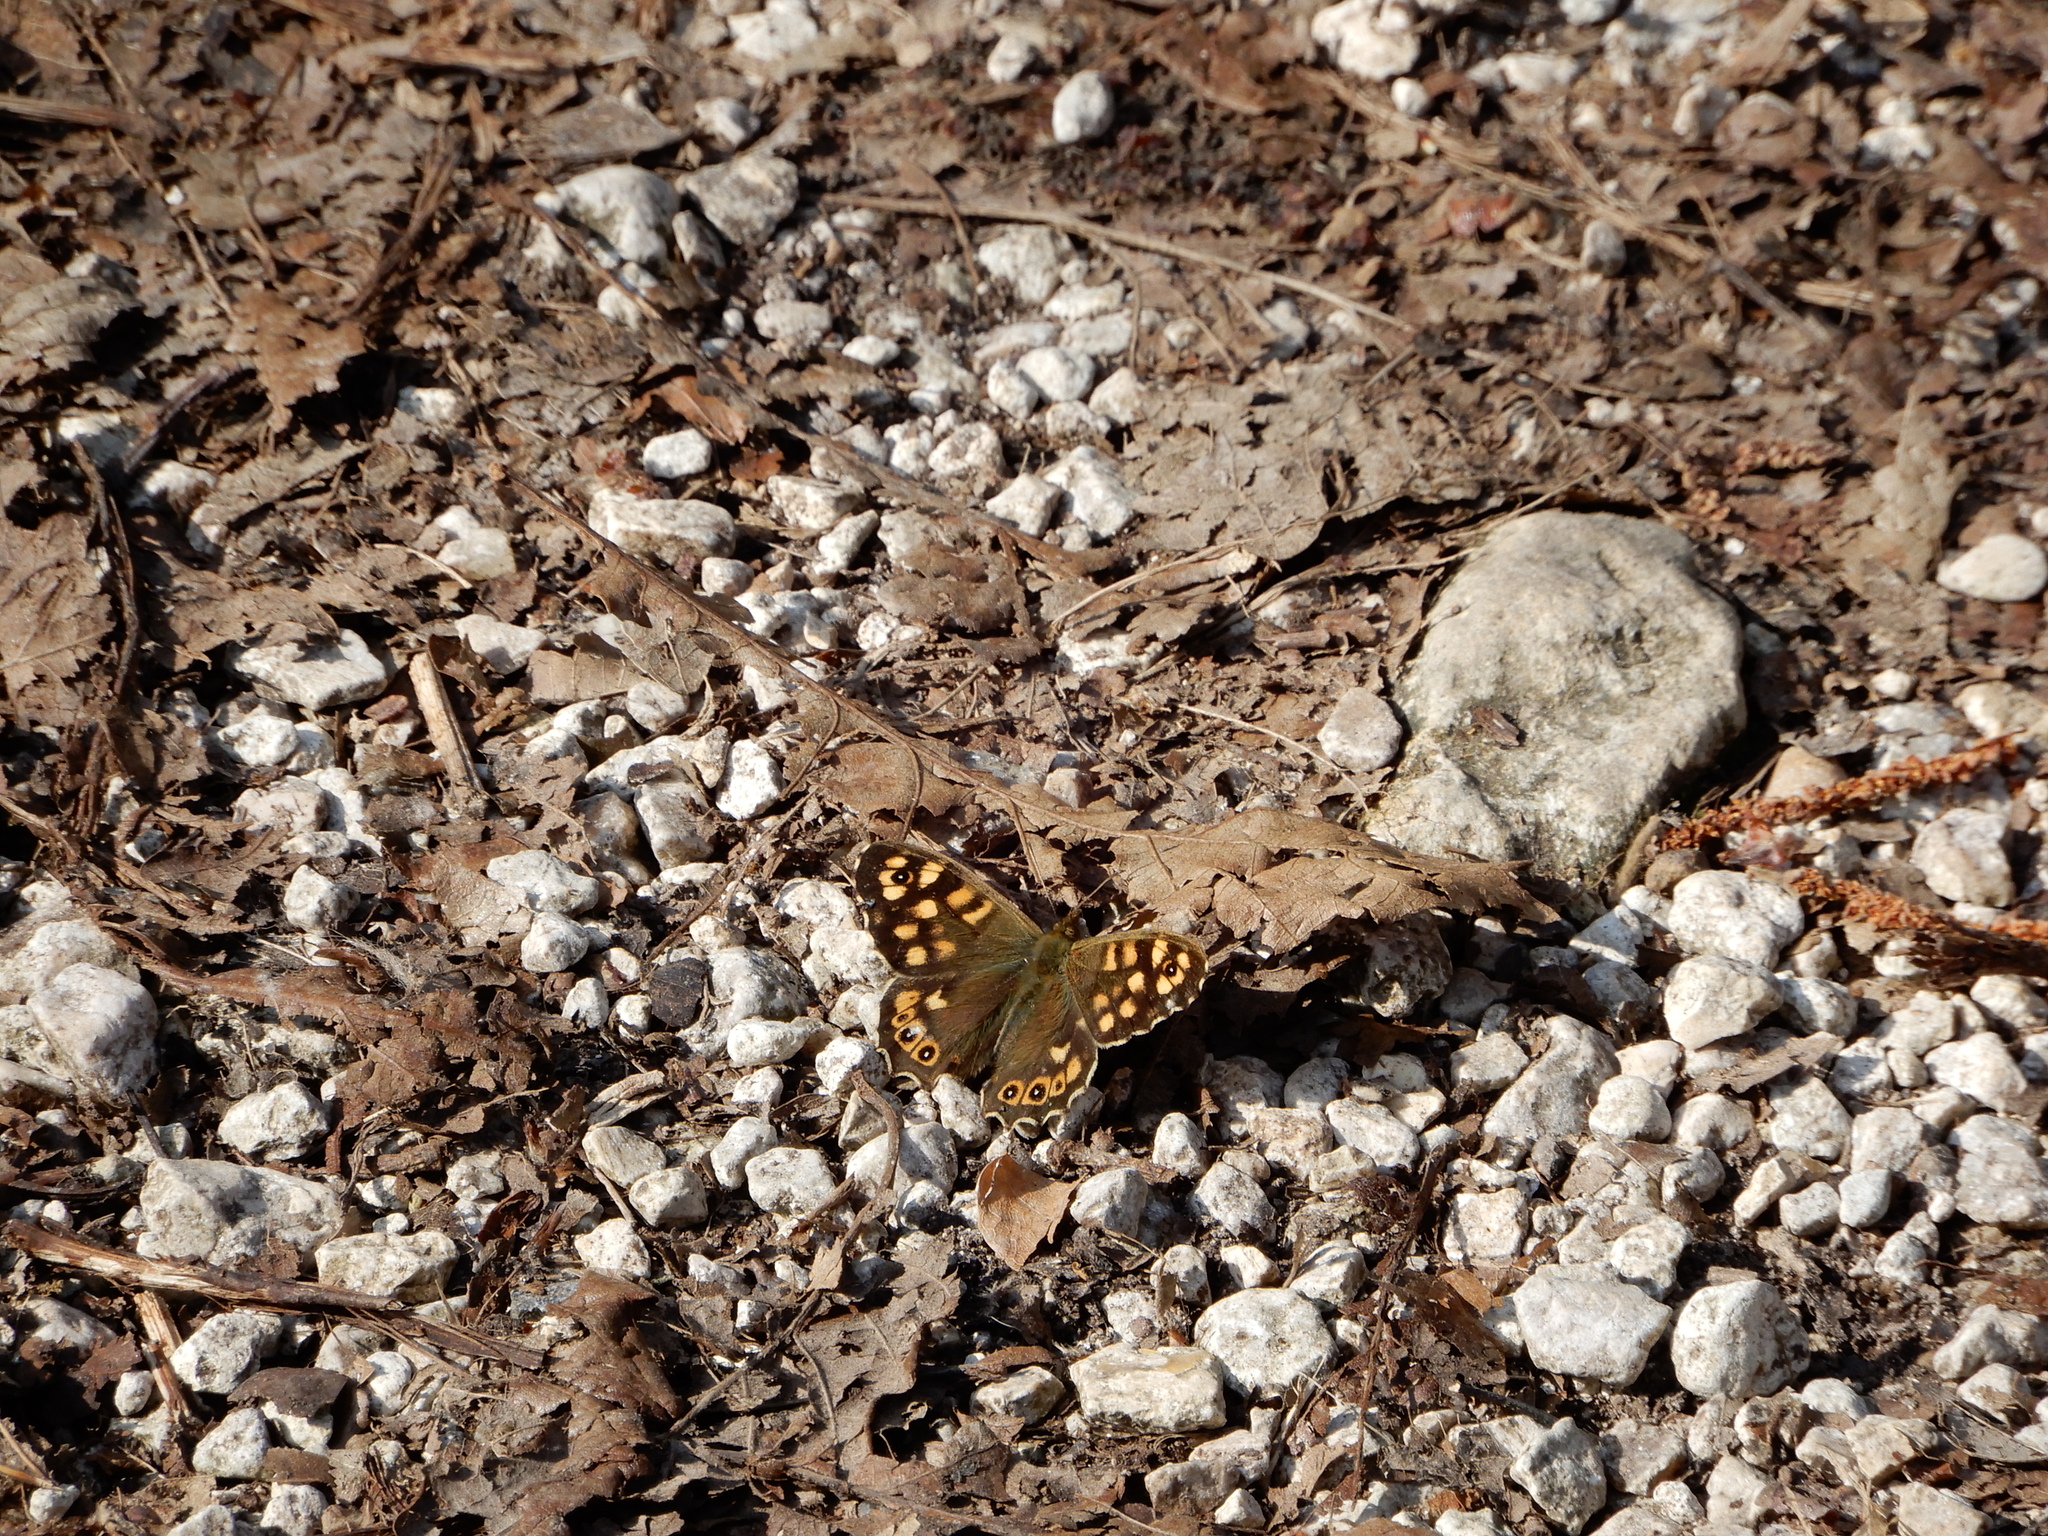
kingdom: Animalia
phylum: Arthropoda
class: Insecta
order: Lepidoptera
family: Nymphalidae
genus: Pararge
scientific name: Pararge aegeria
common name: Speckled wood
